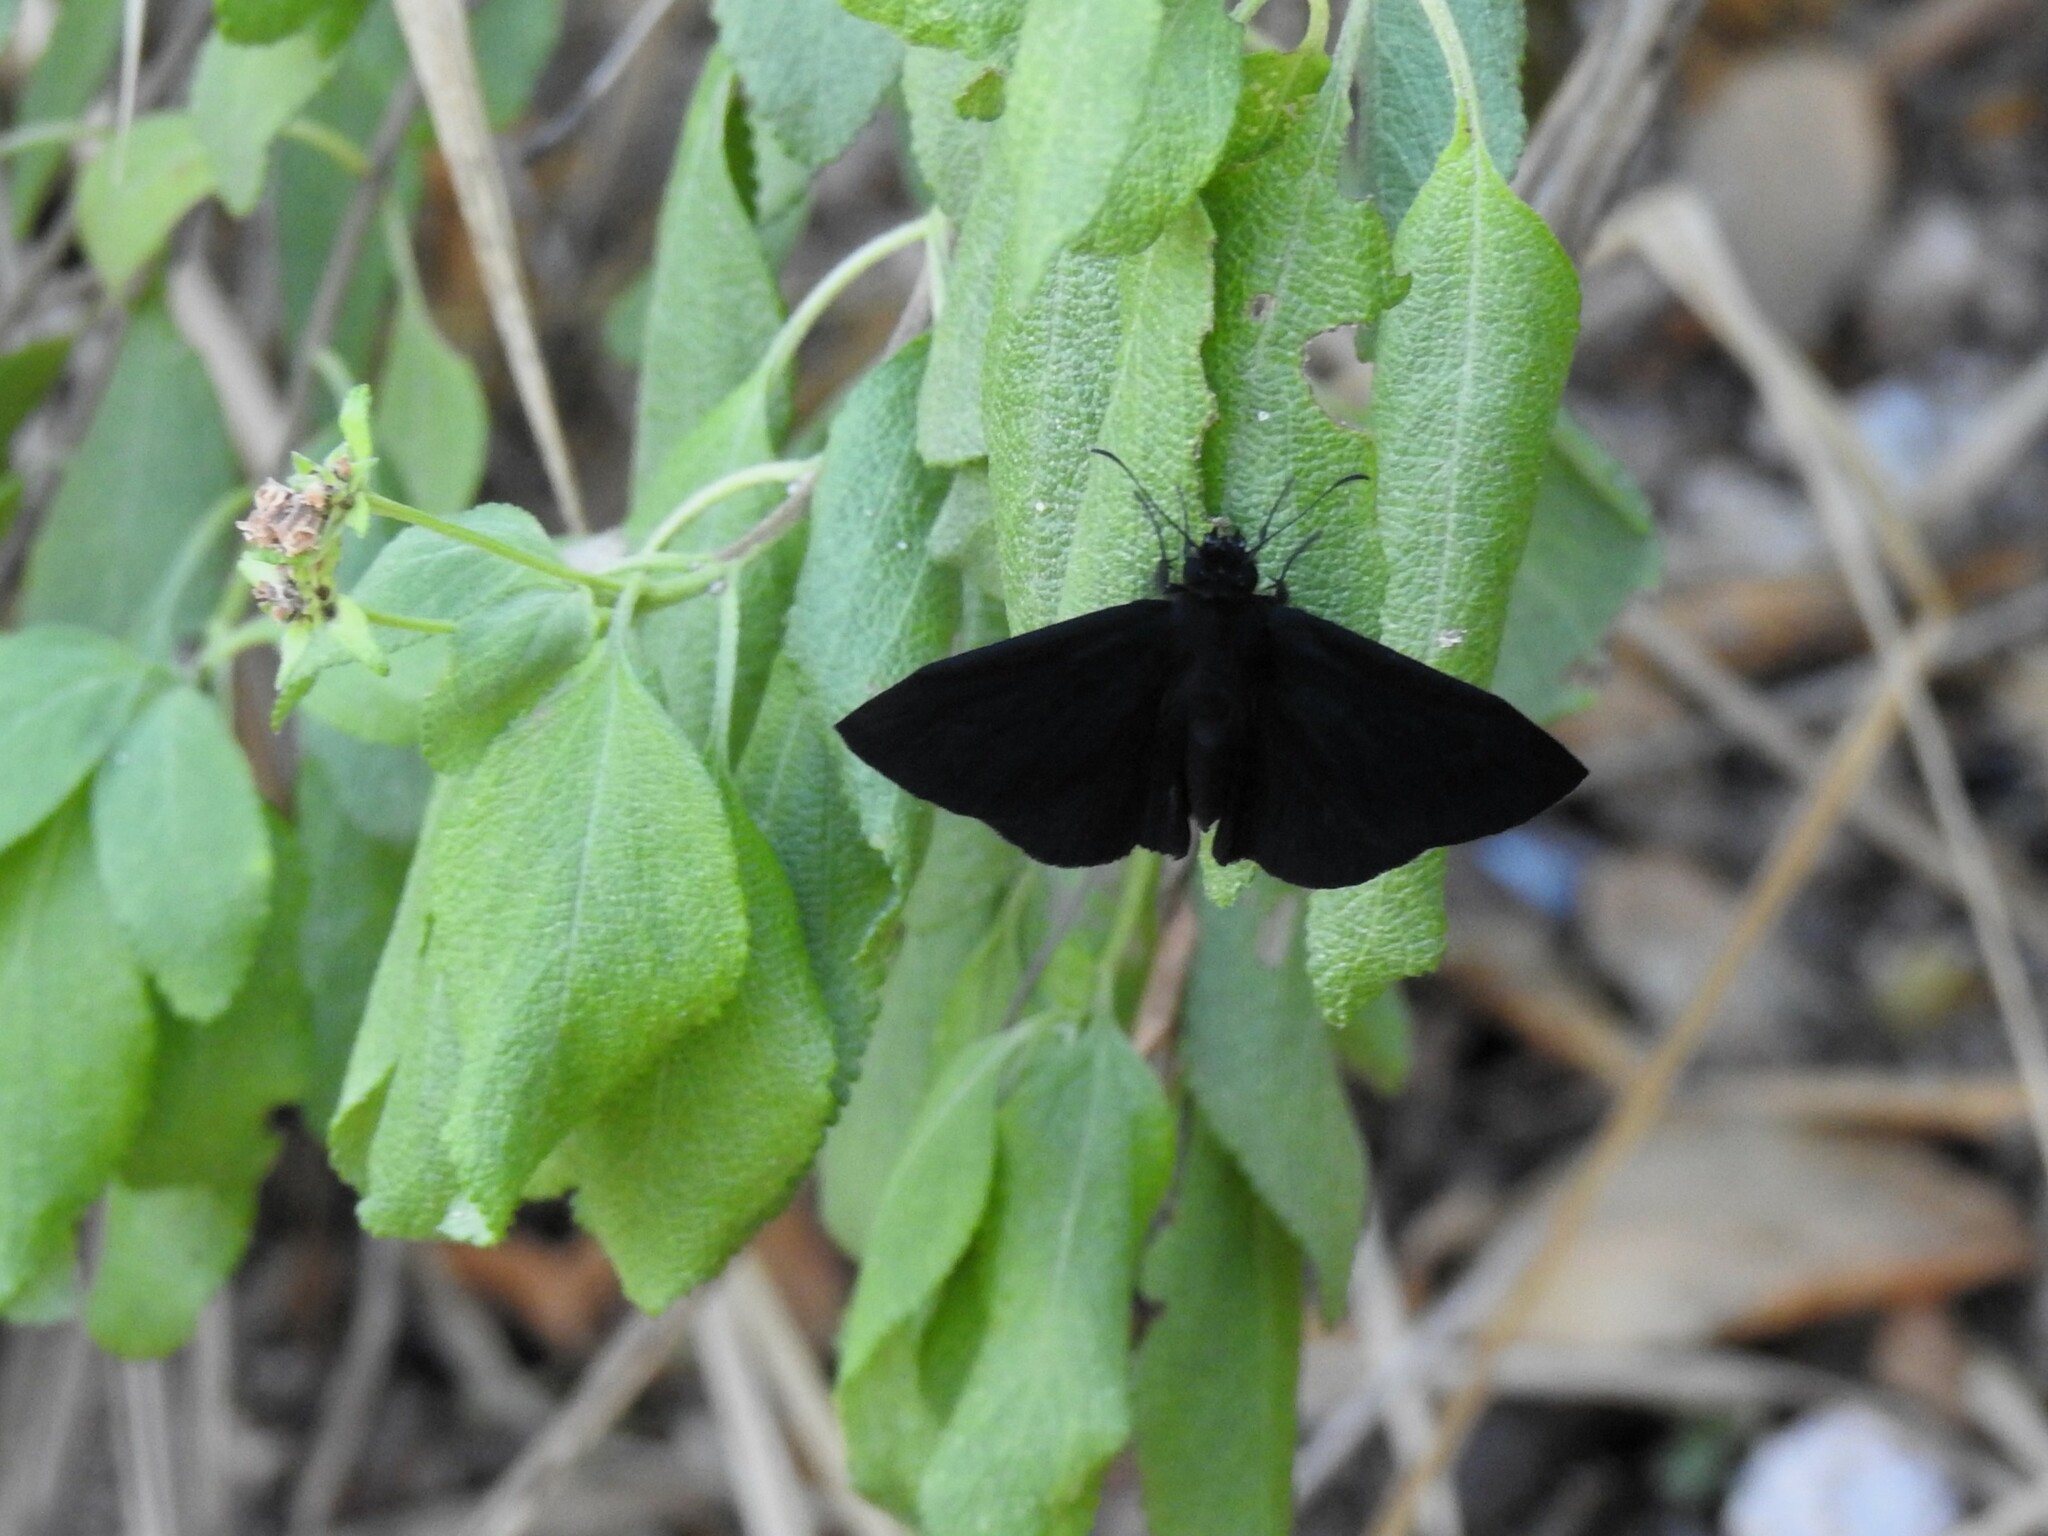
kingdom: Animalia
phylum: Arthropoda
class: Insecta
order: Lepidoptera
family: Hesperiidae
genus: Ephyriades
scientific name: Ephyriades arcas
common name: Caribbean duskywing
